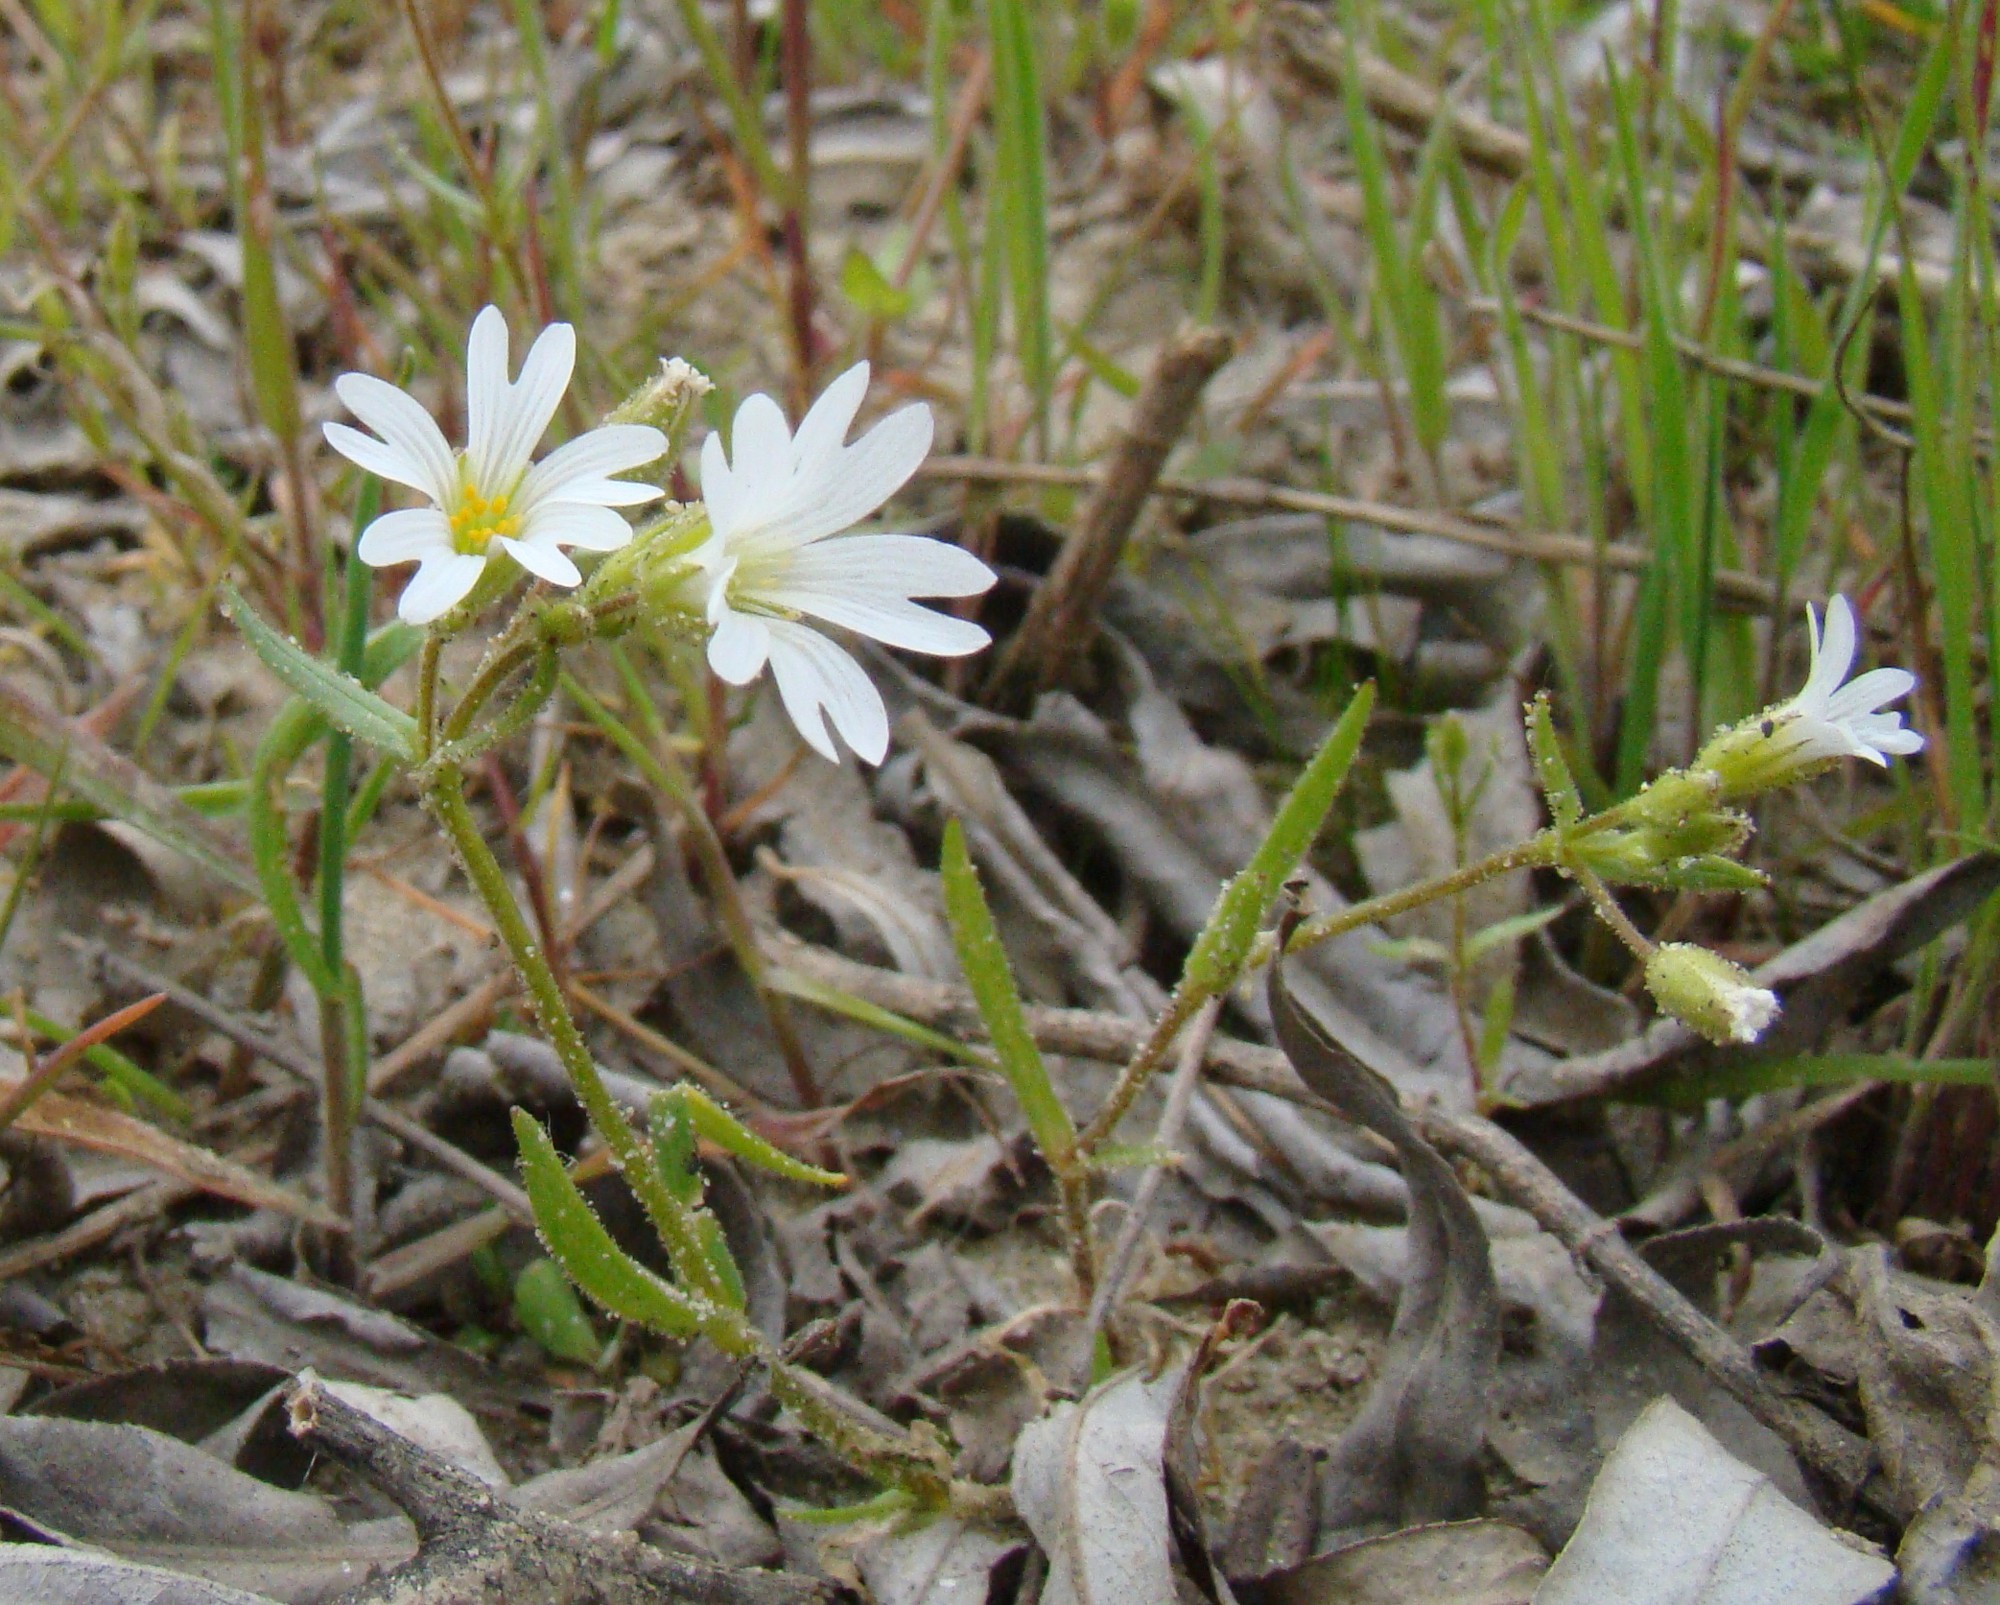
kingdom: Plantae
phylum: Tracheophyta
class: Magnoliopsida
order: Caryophyllales
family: Caryophyllaceae
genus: Dichodon
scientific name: Dichodon viscidum
